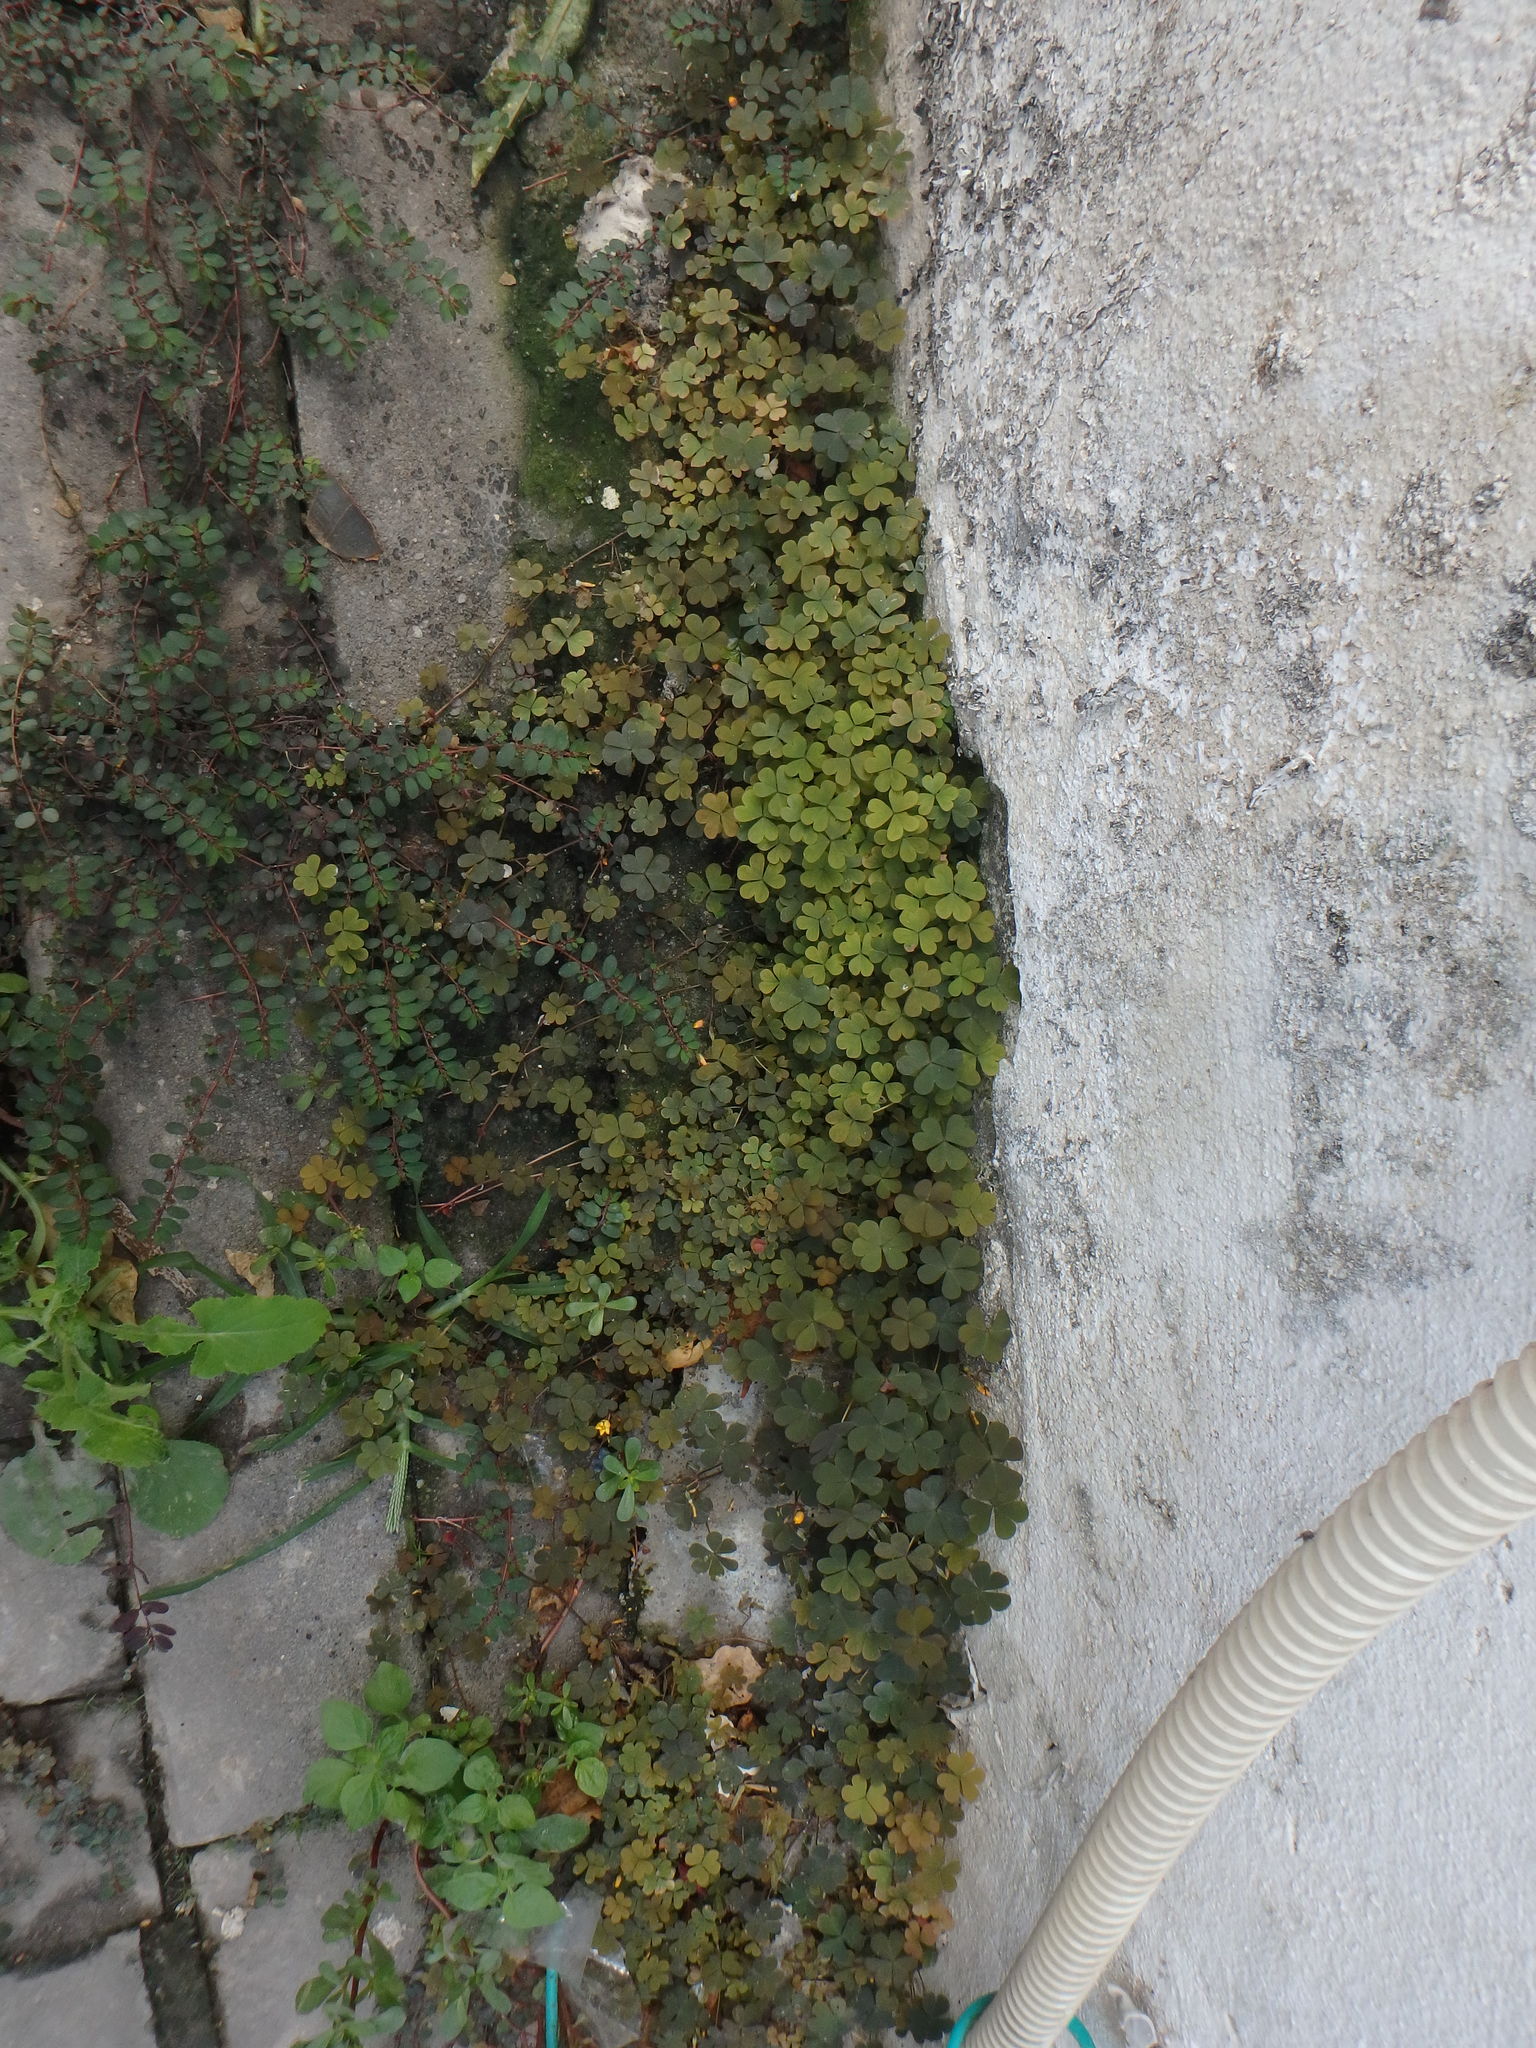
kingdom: Plantae
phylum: Tracheophyta
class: Magnoliopsida
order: Oxalidales
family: Oxalidaceae
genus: Oxalis
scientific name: Oxalis corniculata
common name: Procumbent yellow-sorrel
